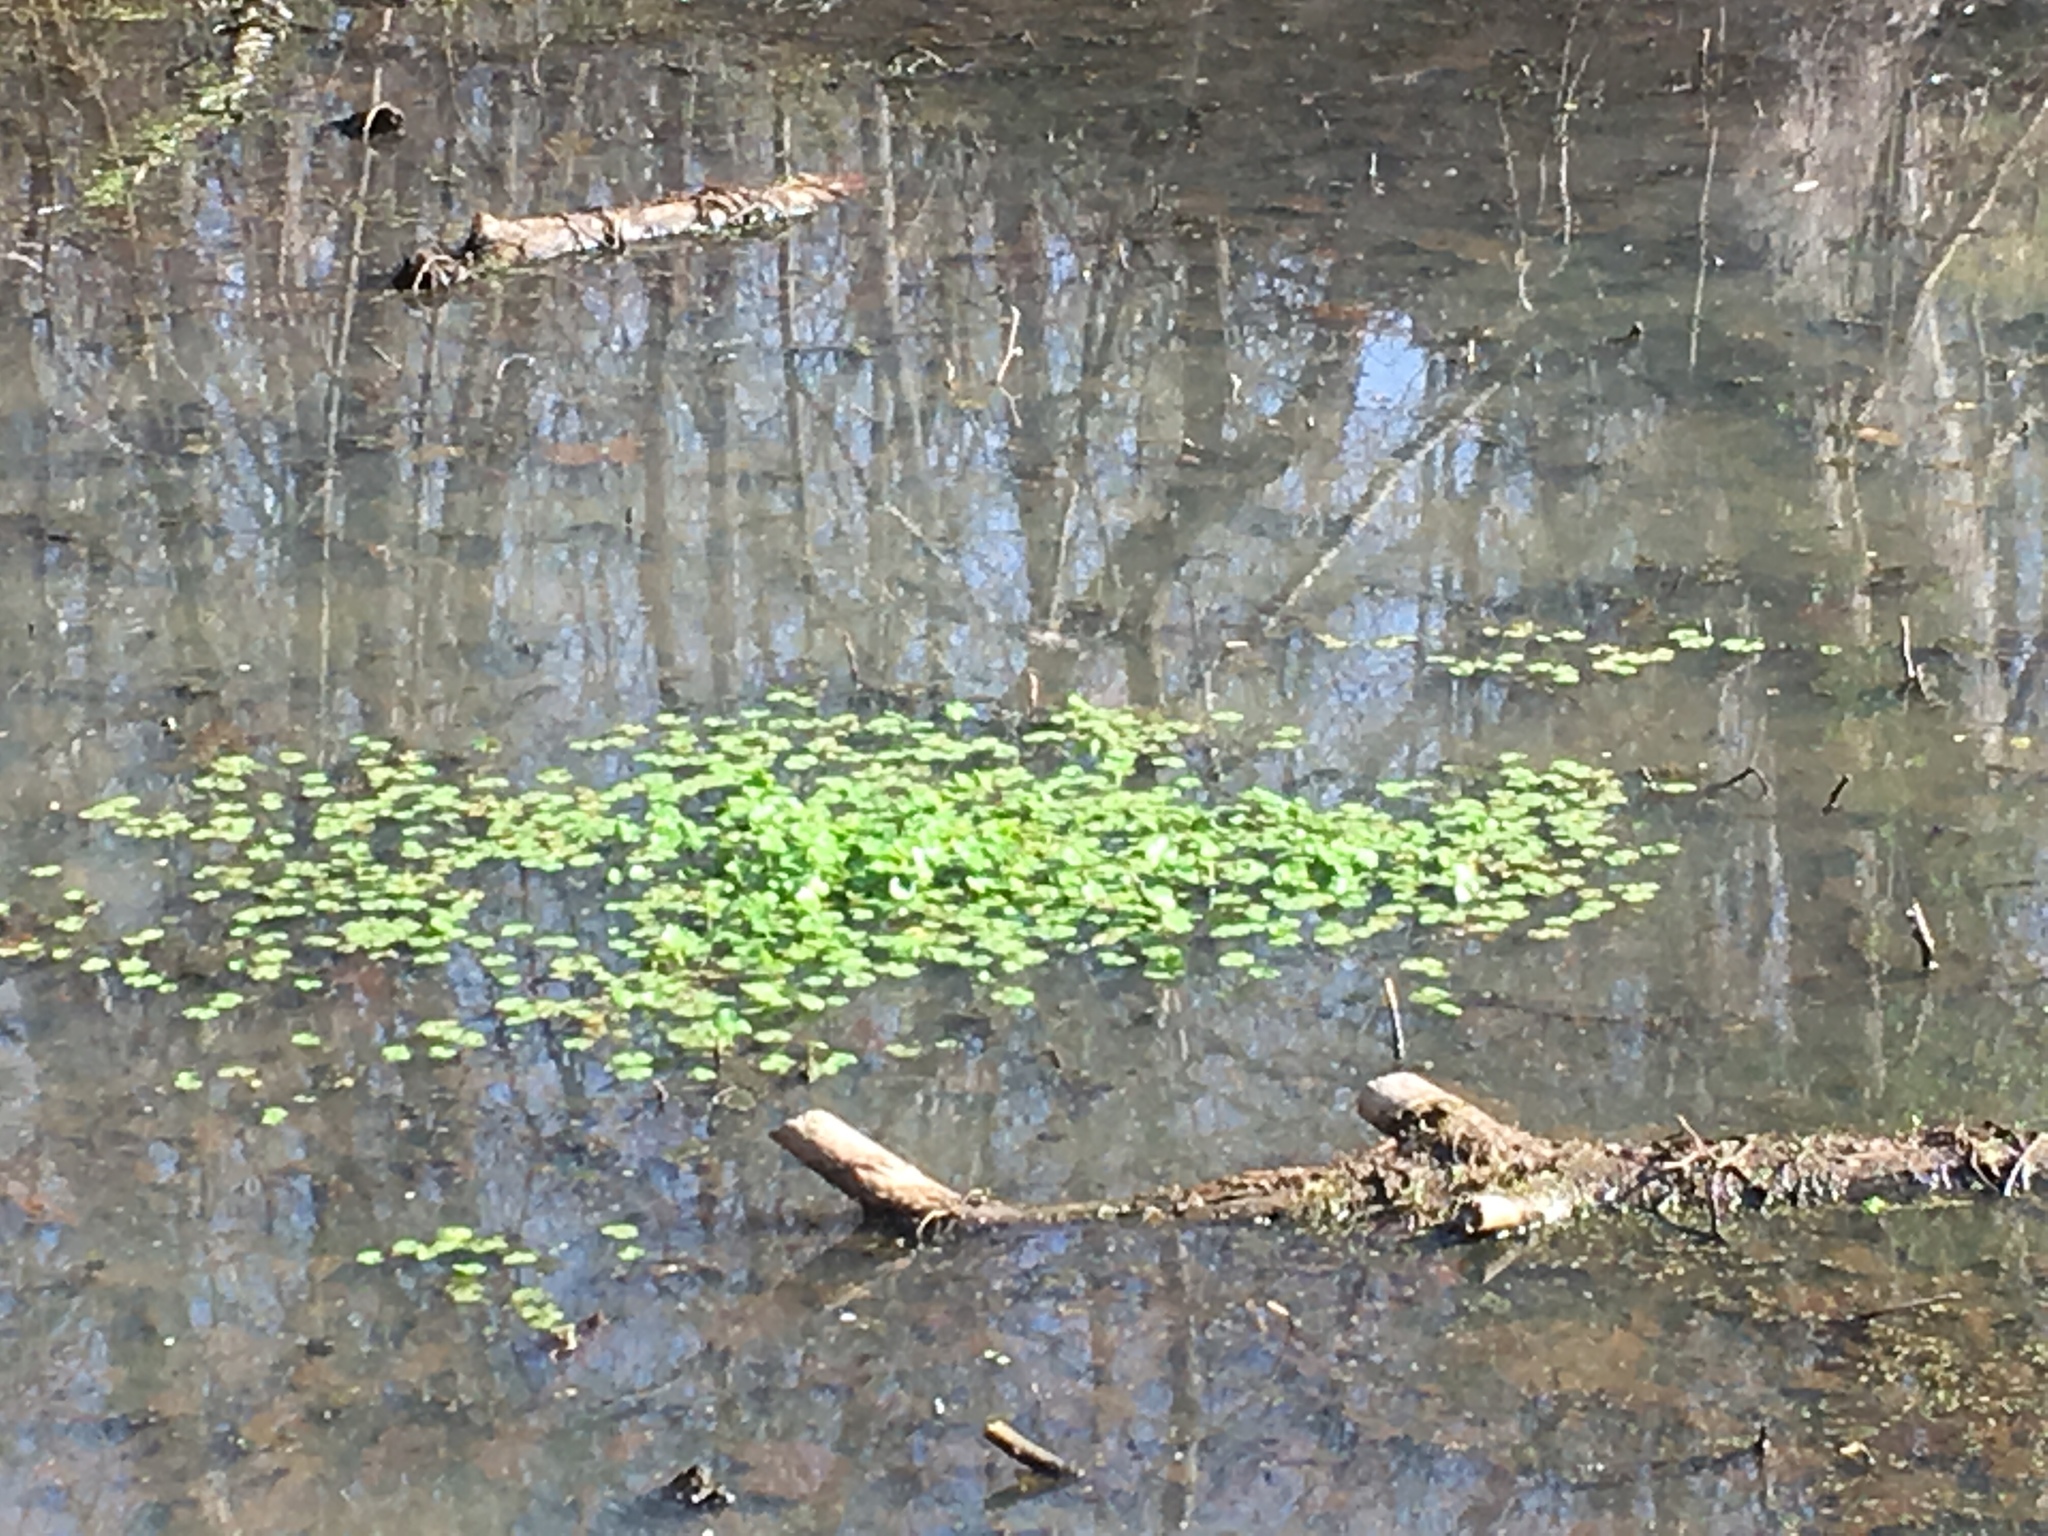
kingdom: Plantae
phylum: Tracheophyta
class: Magnoliopsida
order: Apiales
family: Araliaceae
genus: Hydrocotyle
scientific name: Hydrocotyle ranunculoides
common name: Floating pennywort
